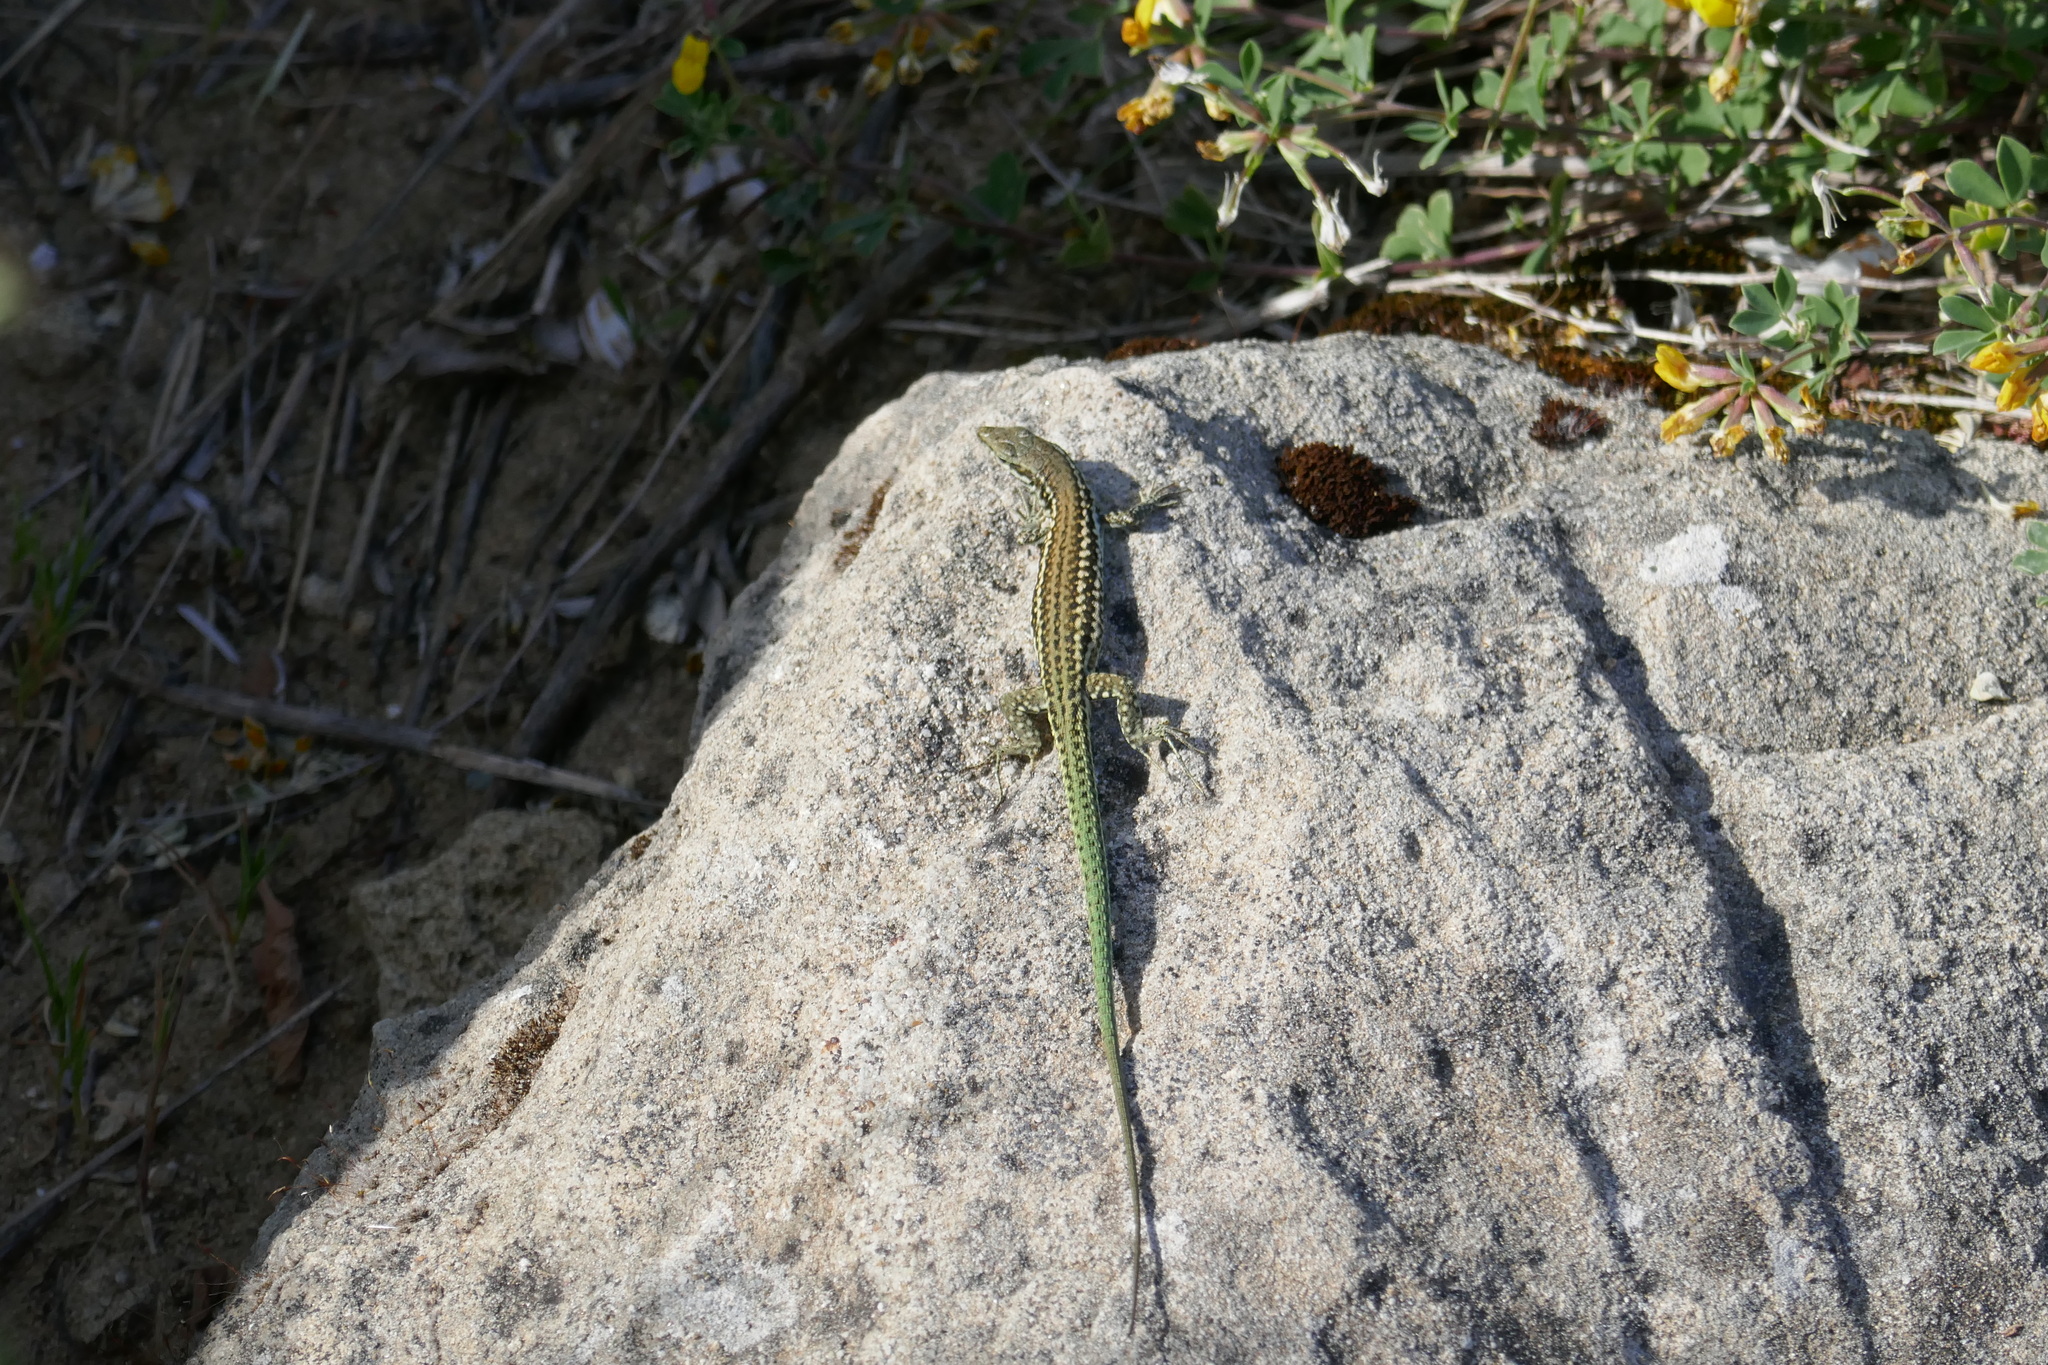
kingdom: Animalia
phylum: Chordata
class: Squamata
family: Lacertidae
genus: Podarcis
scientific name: Podarcis tiliguerta
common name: Tyrrhenian wall lizard
